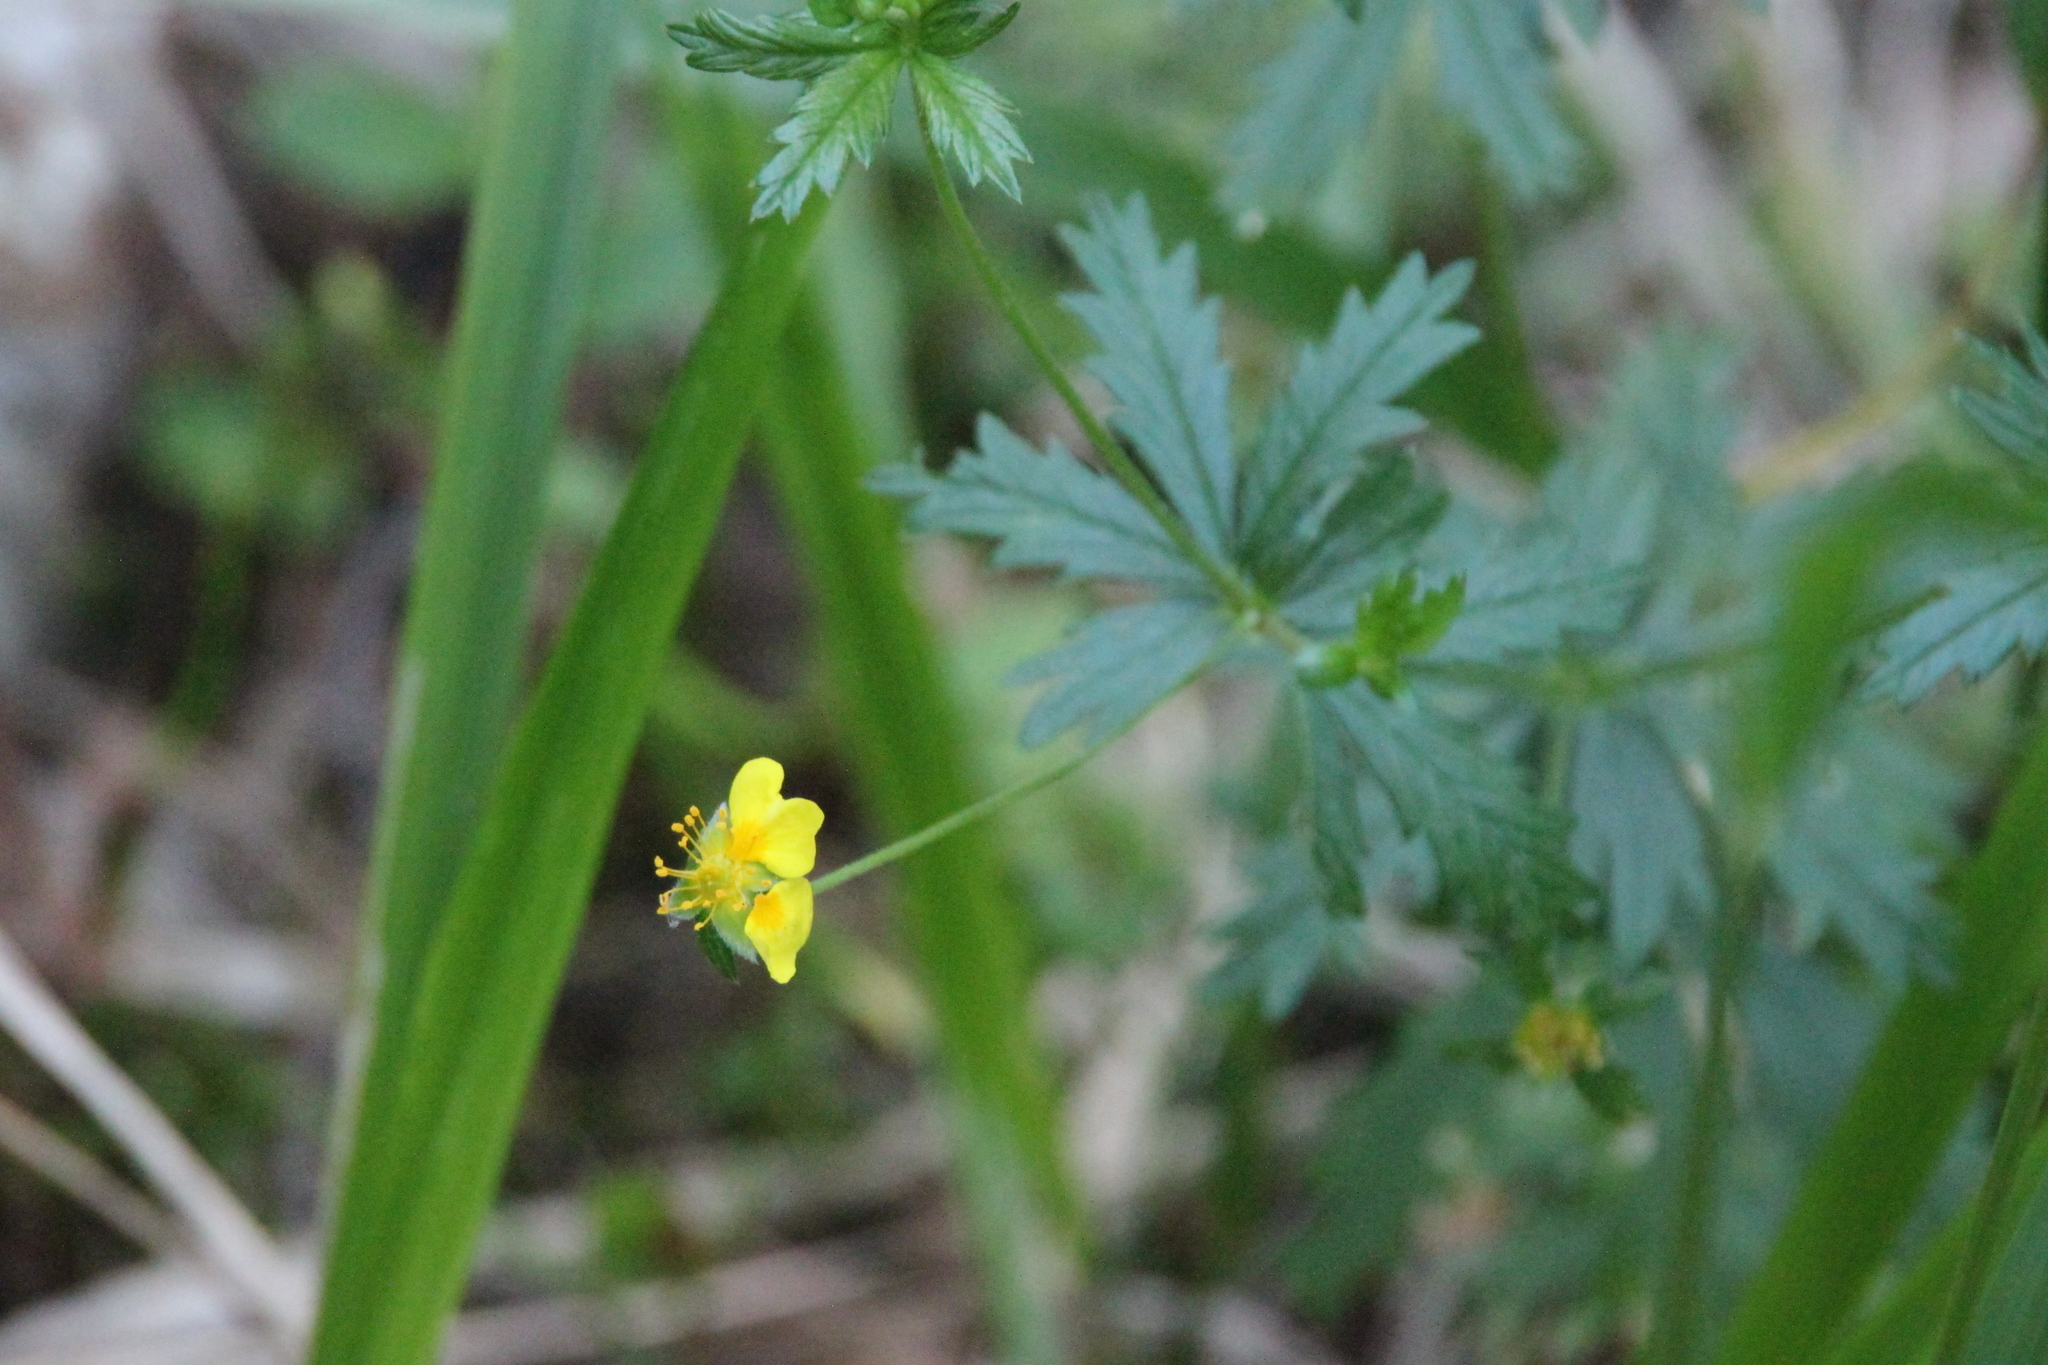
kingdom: Plantae
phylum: Tracheophyta
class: Magnoliopsida
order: Rosales
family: Rosaceae
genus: Potentilla
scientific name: Potentilla erecta
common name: Tormentil
